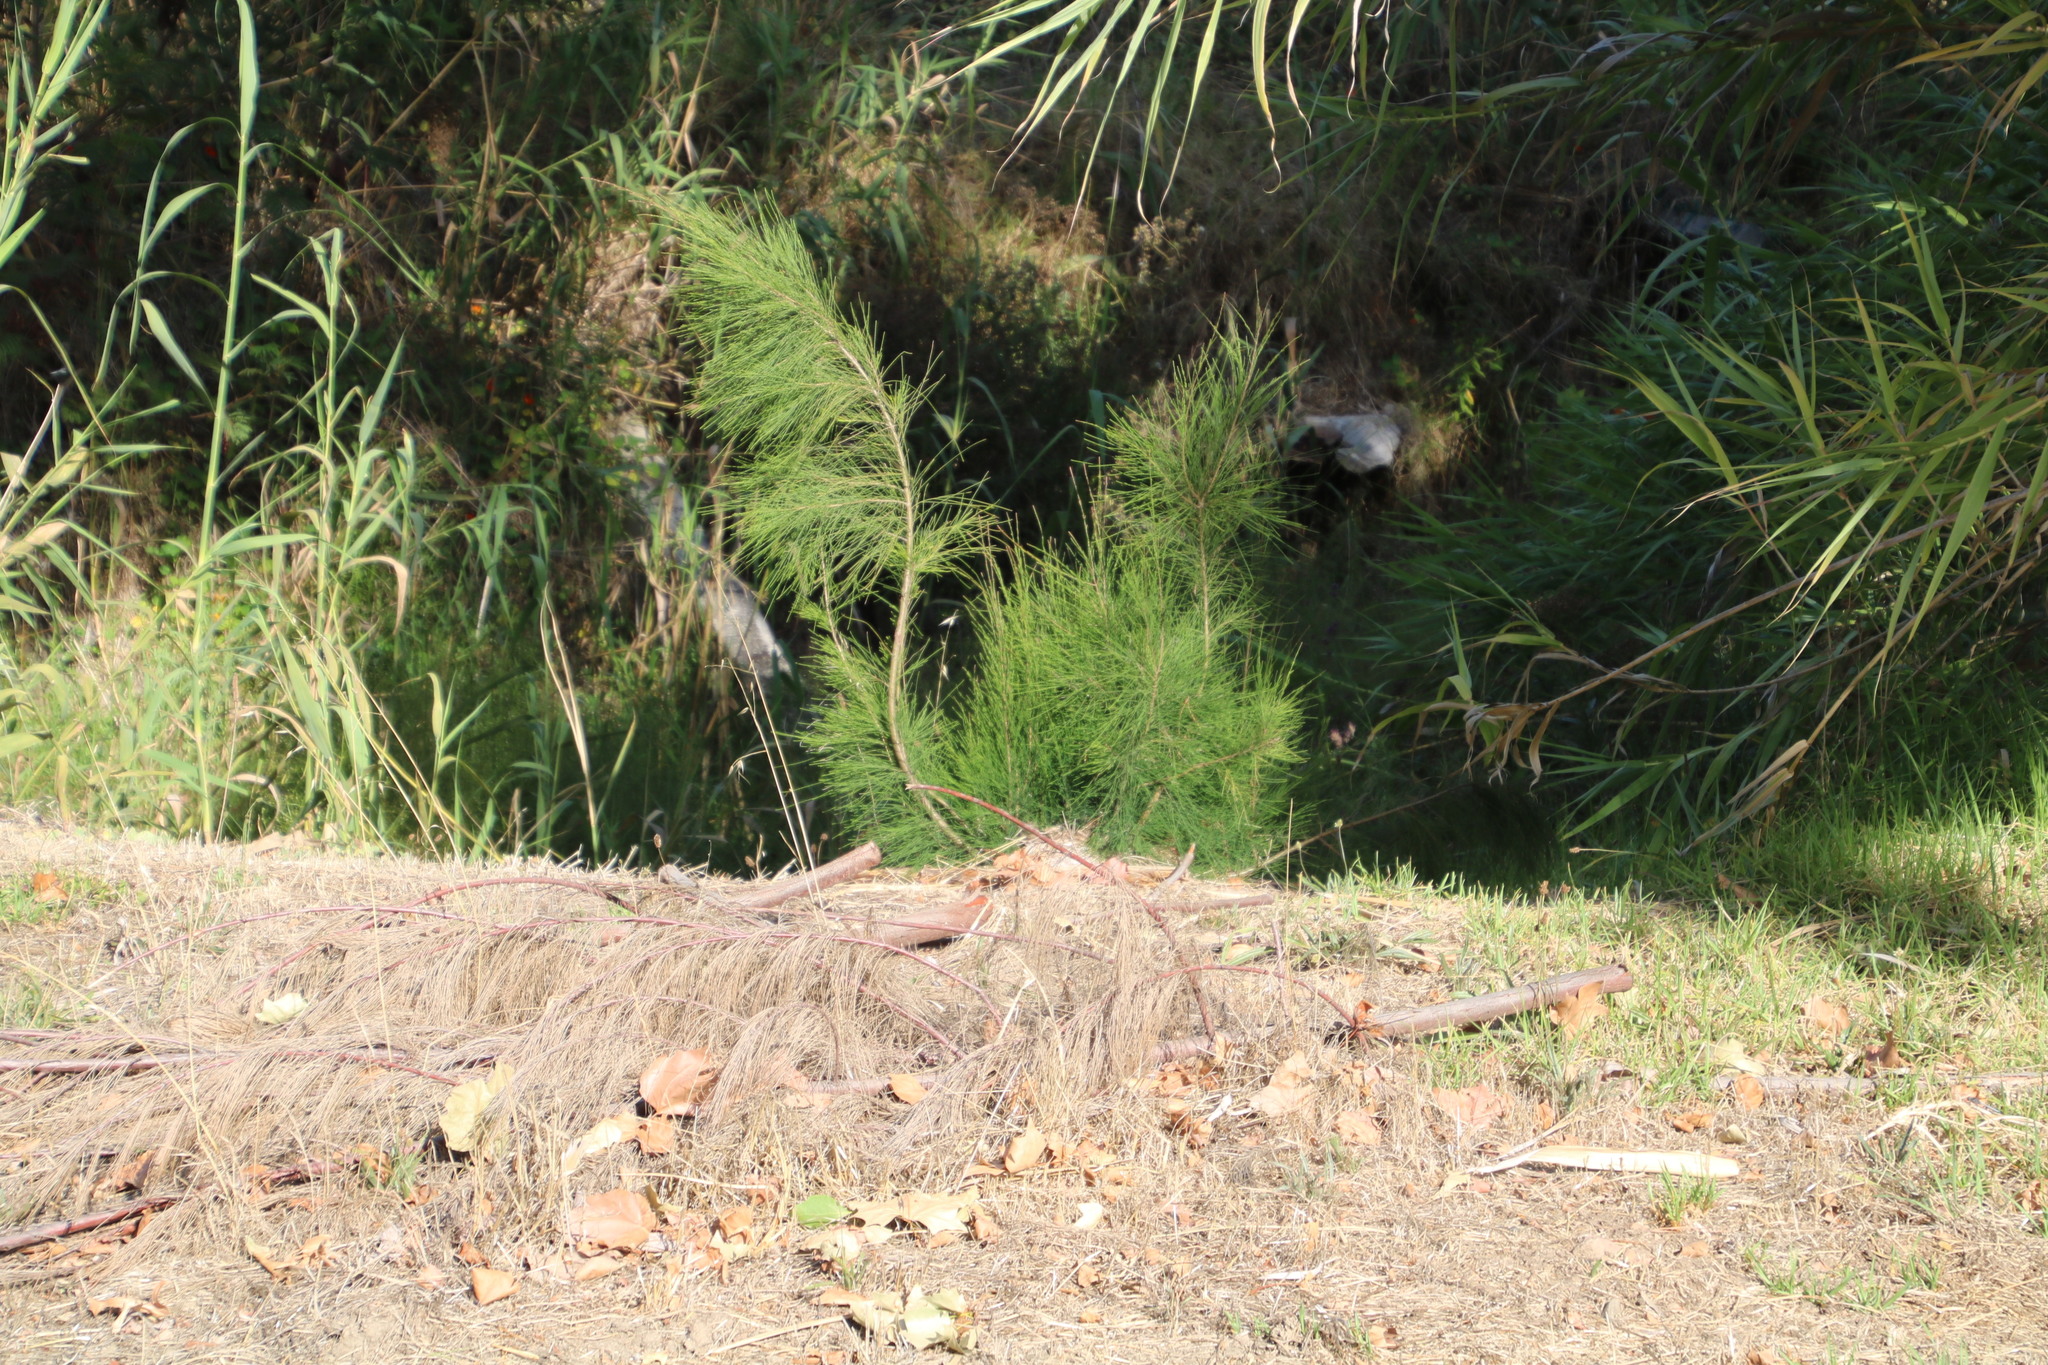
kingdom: Plantae
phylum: Tracheophyta
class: Magnoliopsida
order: Fagales
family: Casuarinaceae
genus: Casuarina
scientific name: Casuarina cunninghamiana
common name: River sheoak
